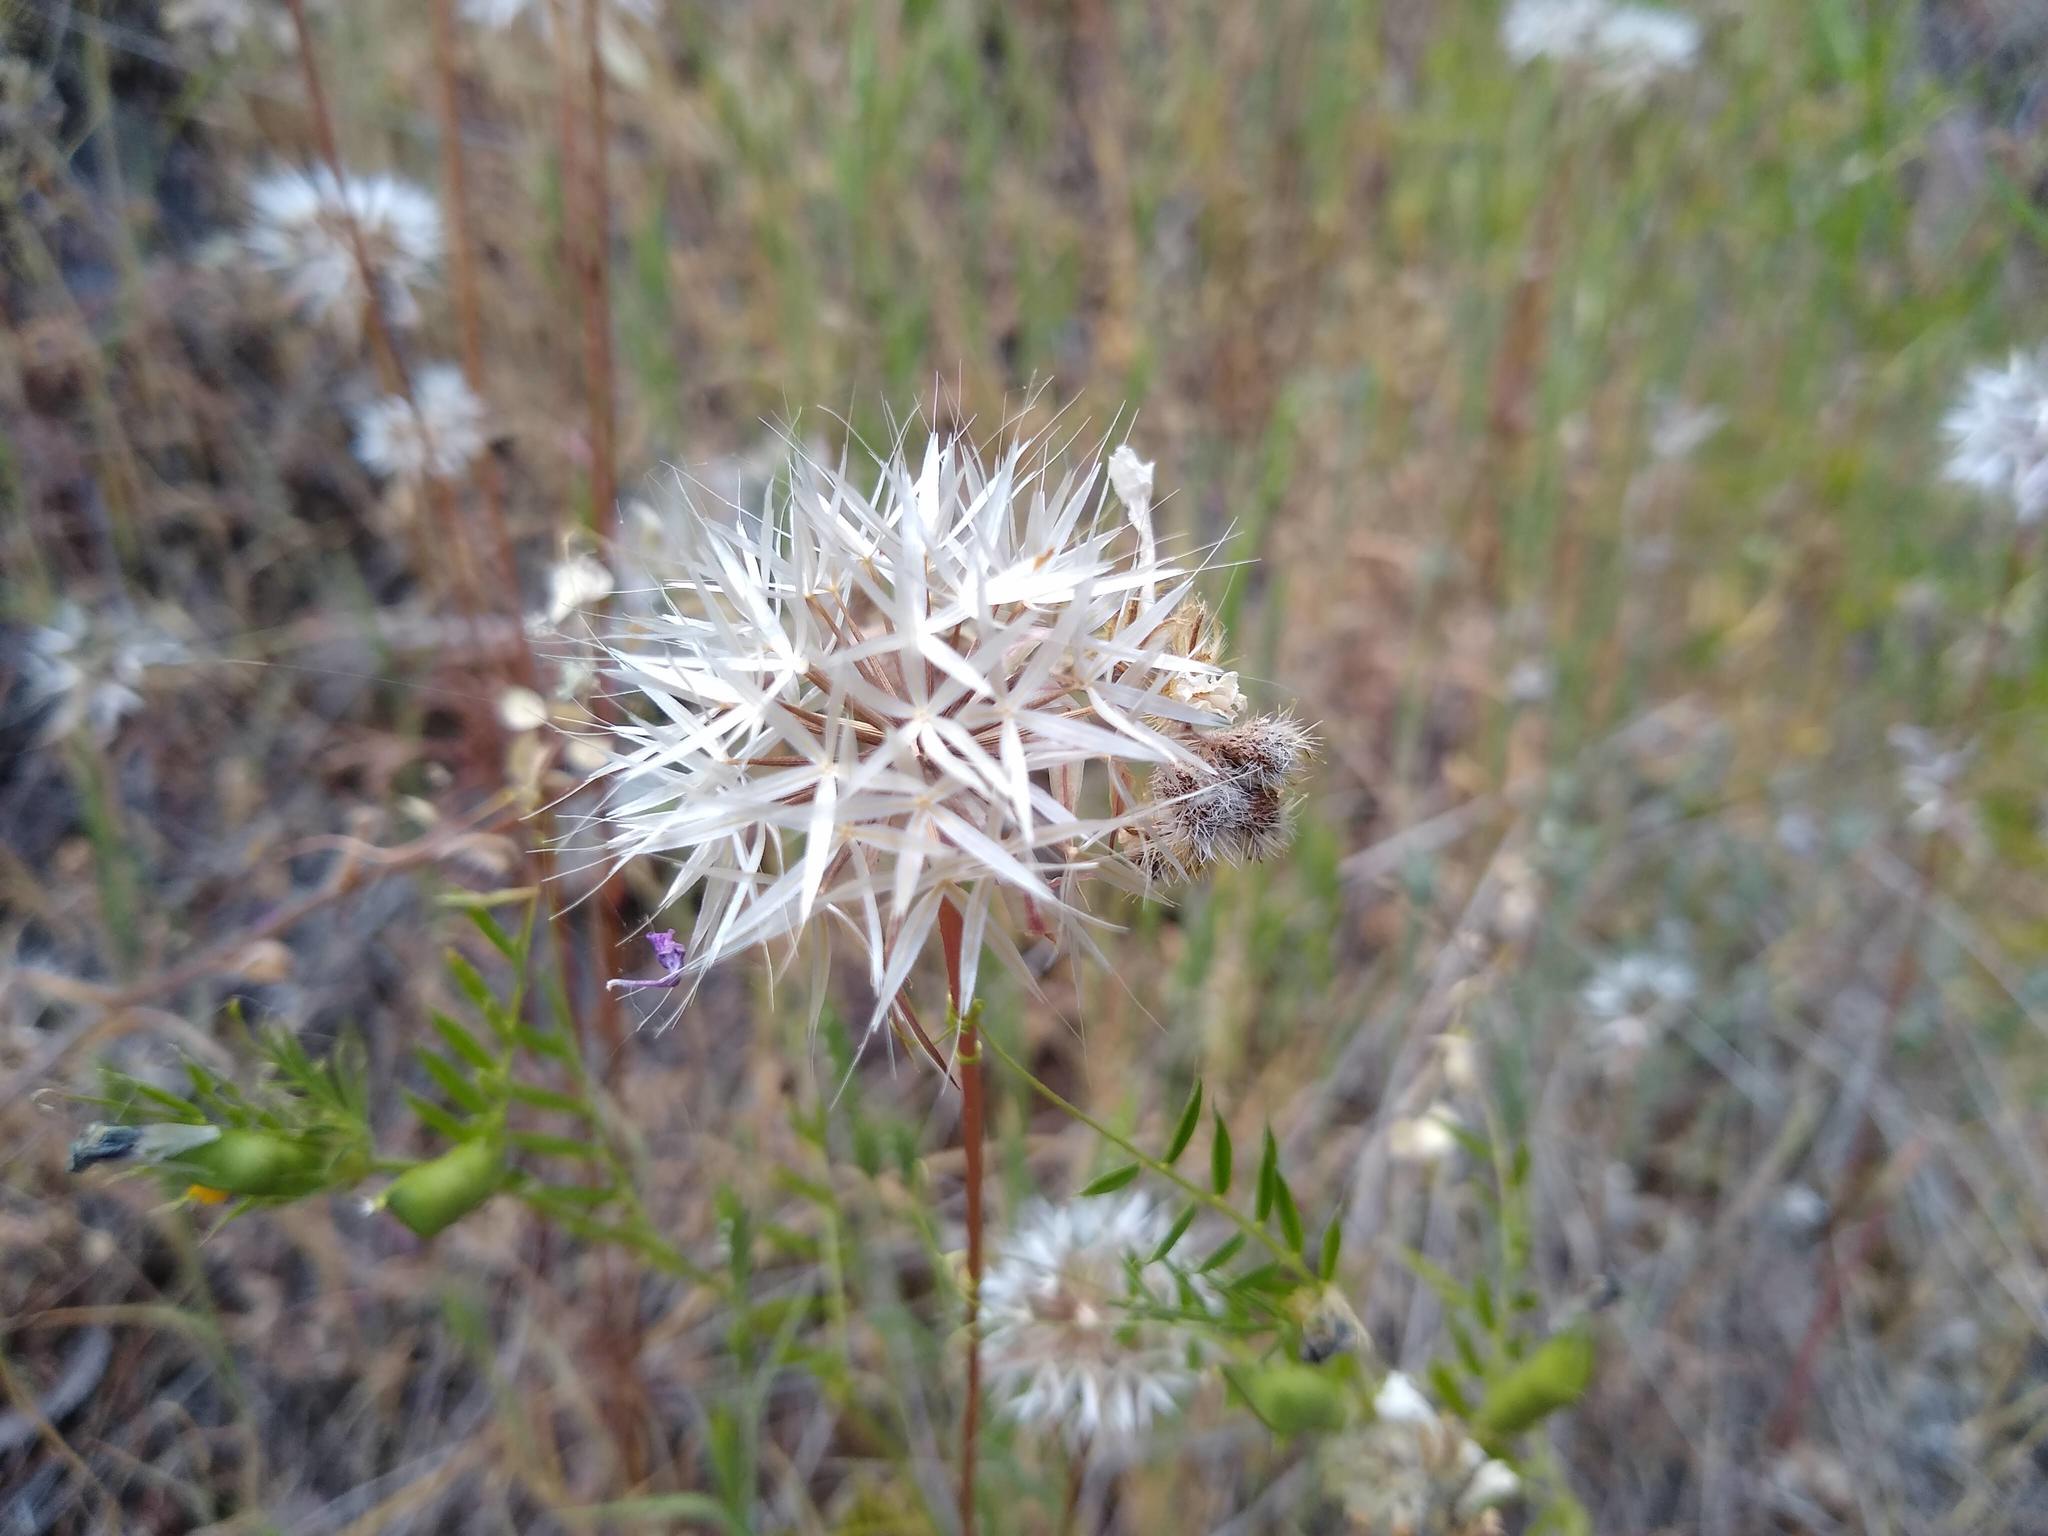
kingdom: Plantae
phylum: Tracheophyta
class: Magnoliopsida
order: Asterales
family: Asteraceae
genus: Microseris
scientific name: Microseris lindleyi
